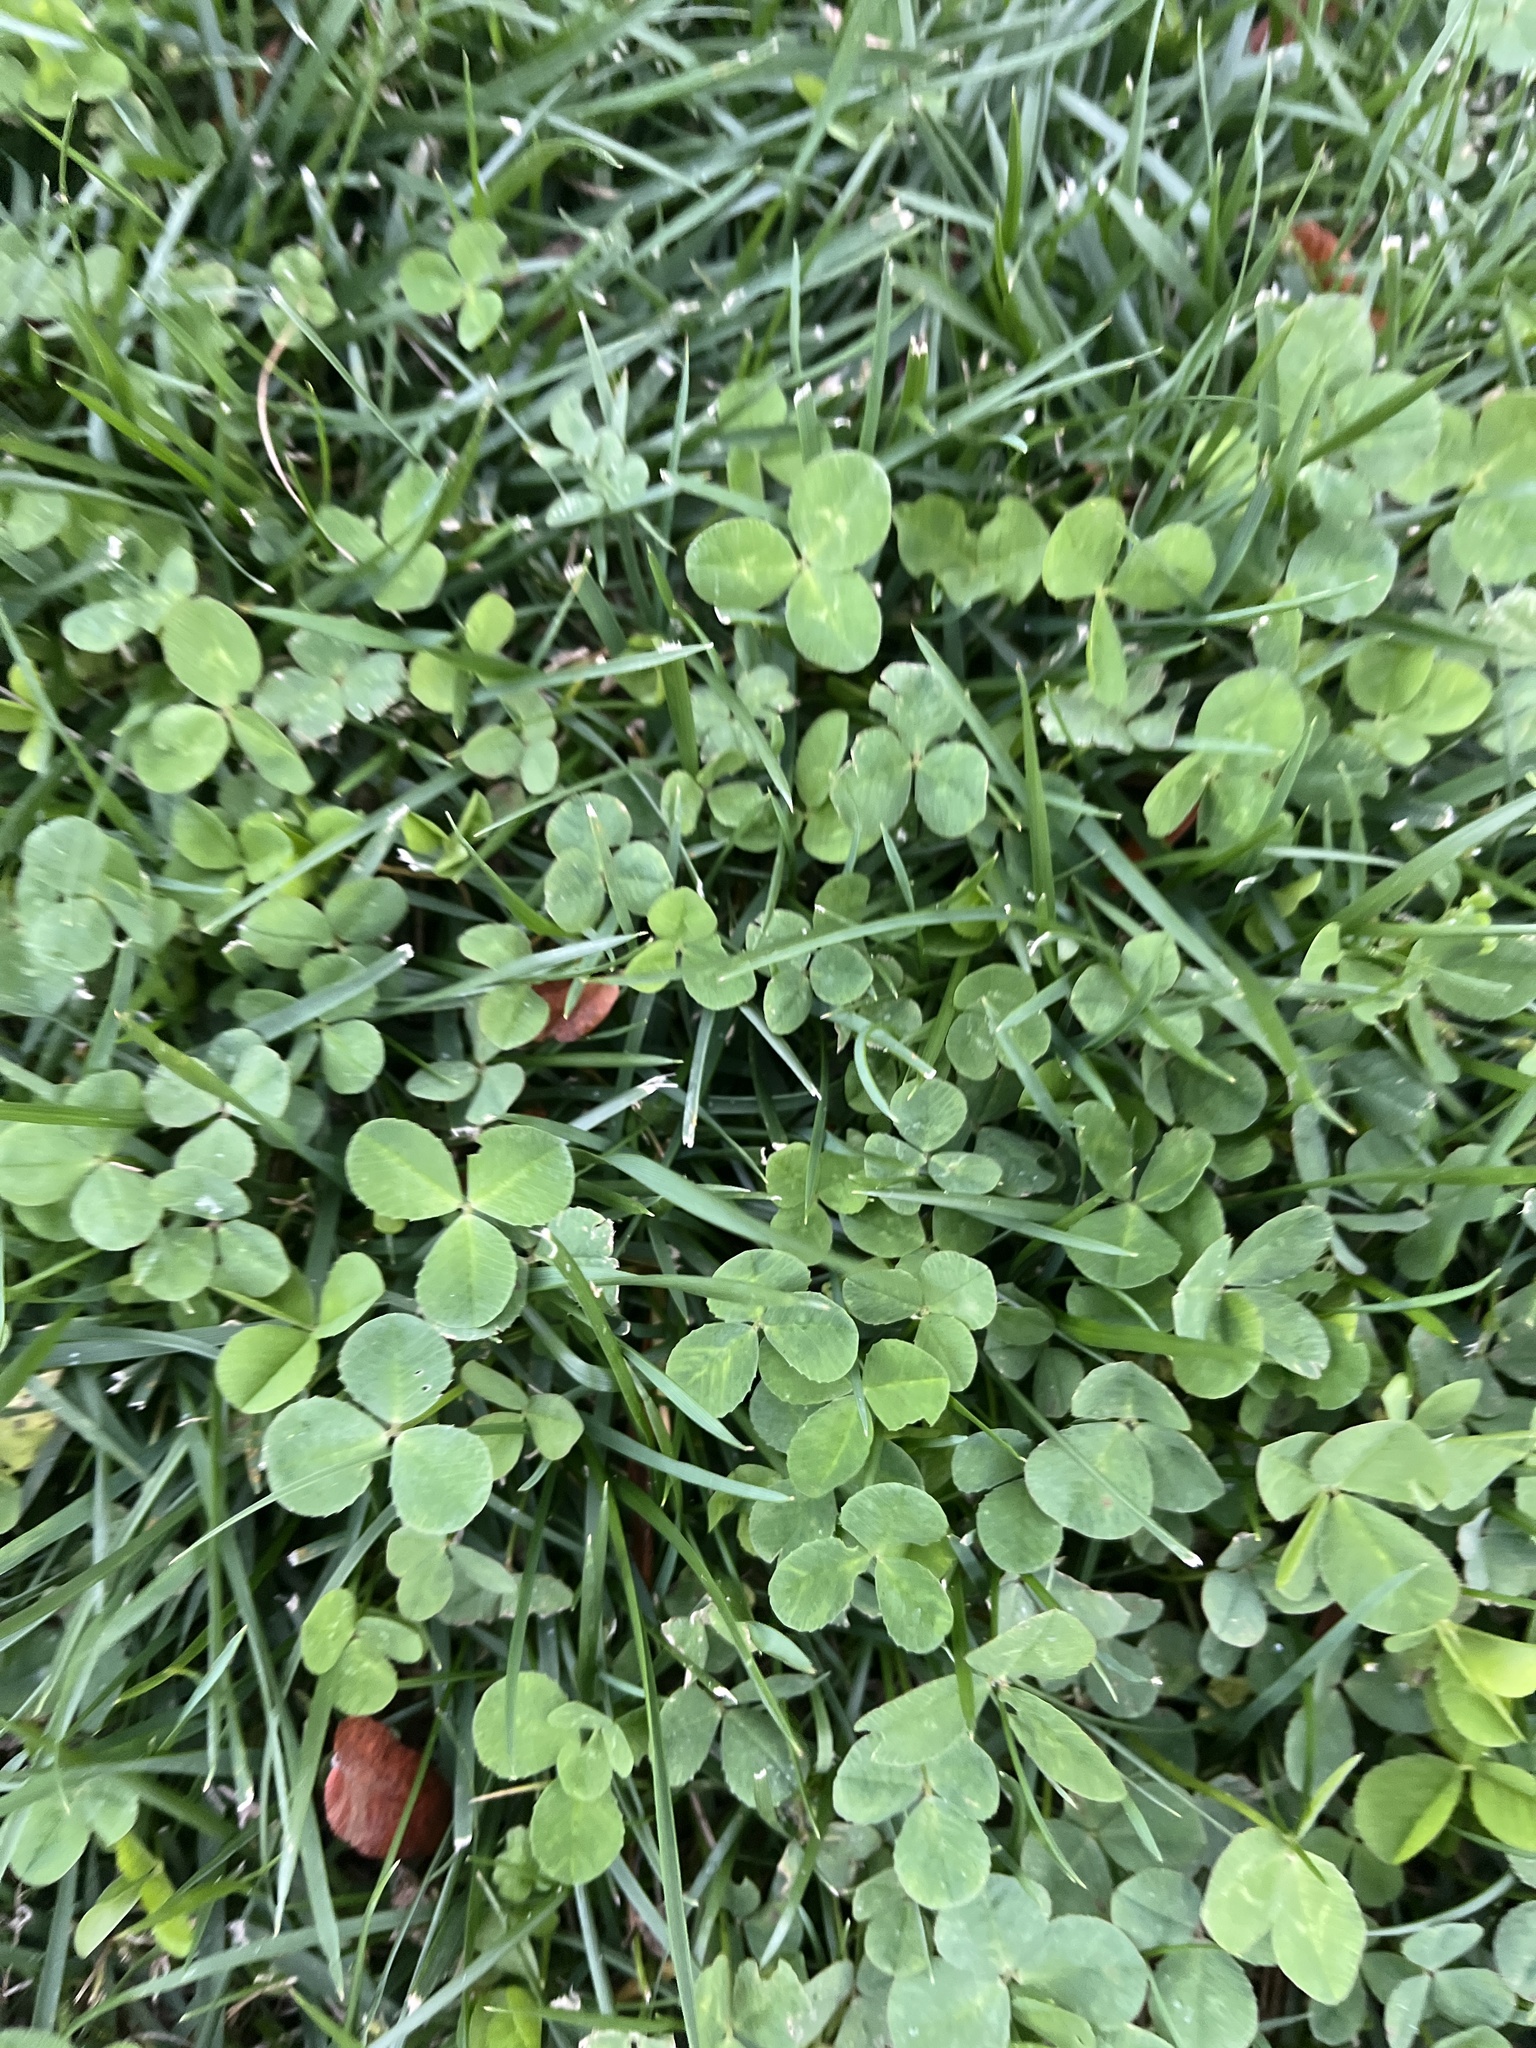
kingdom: Plantae
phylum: Tracheophyta
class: Magnoliopsida
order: Fabales
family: Fabaceae
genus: Trifolium
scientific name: Trifolium repens
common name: White clover
